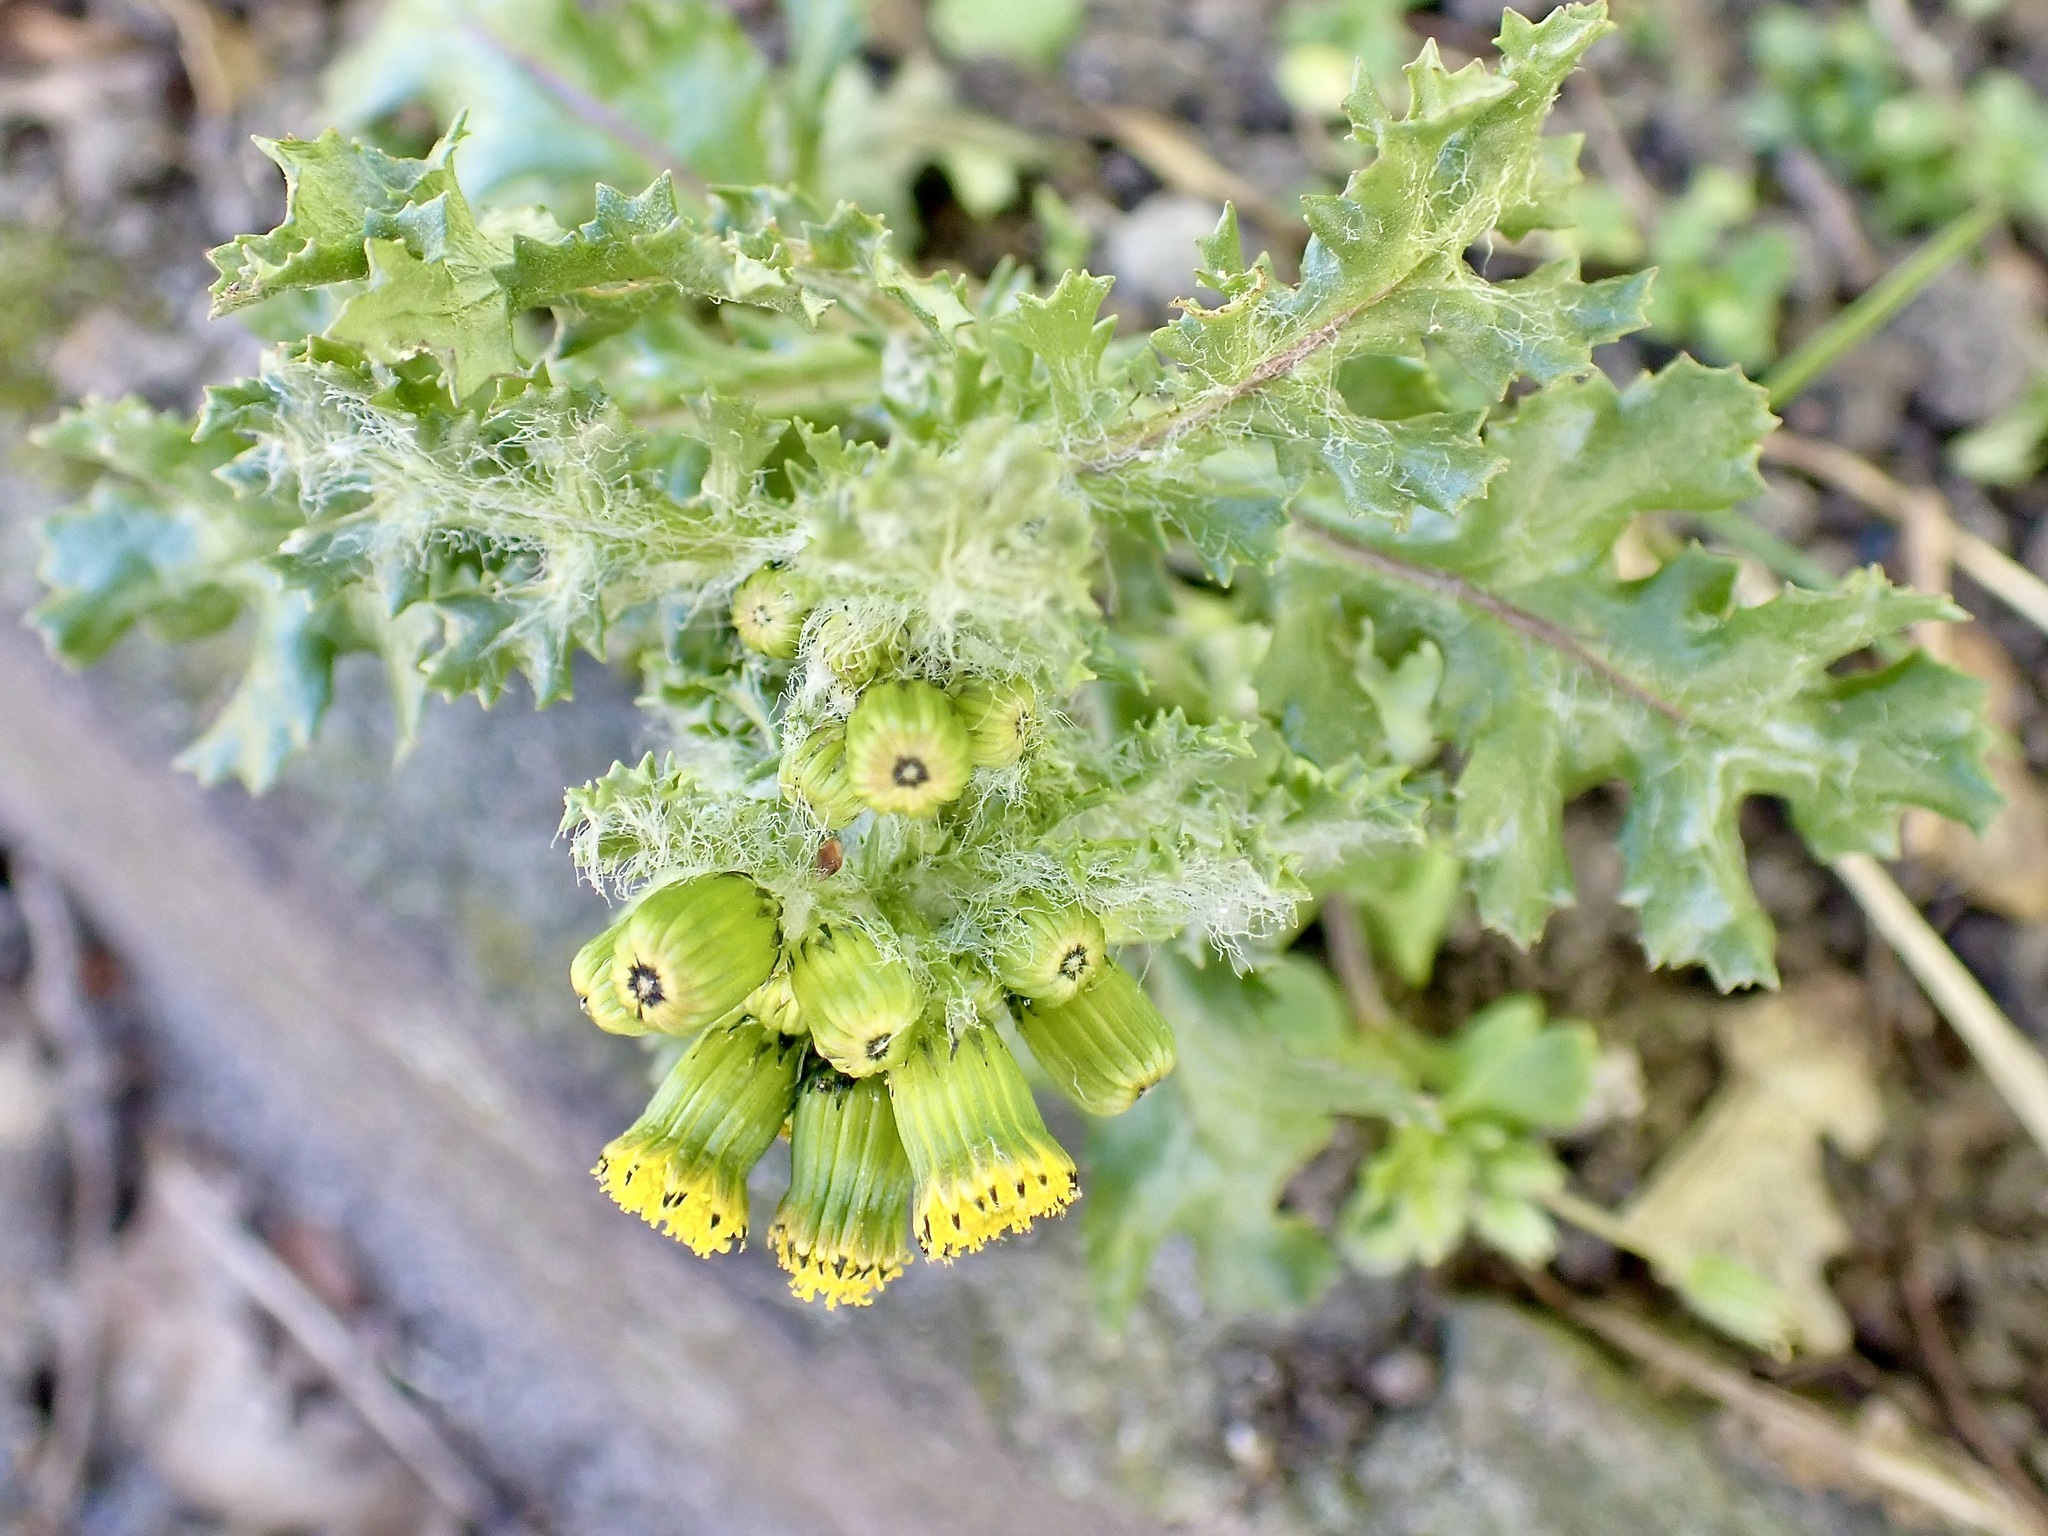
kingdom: Plantae
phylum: Tracheophyta
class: Magnoliopsida
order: Asterales
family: Asteraceae
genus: Senecio
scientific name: Senecio vulgaris
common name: Old-man-in-the-spring
